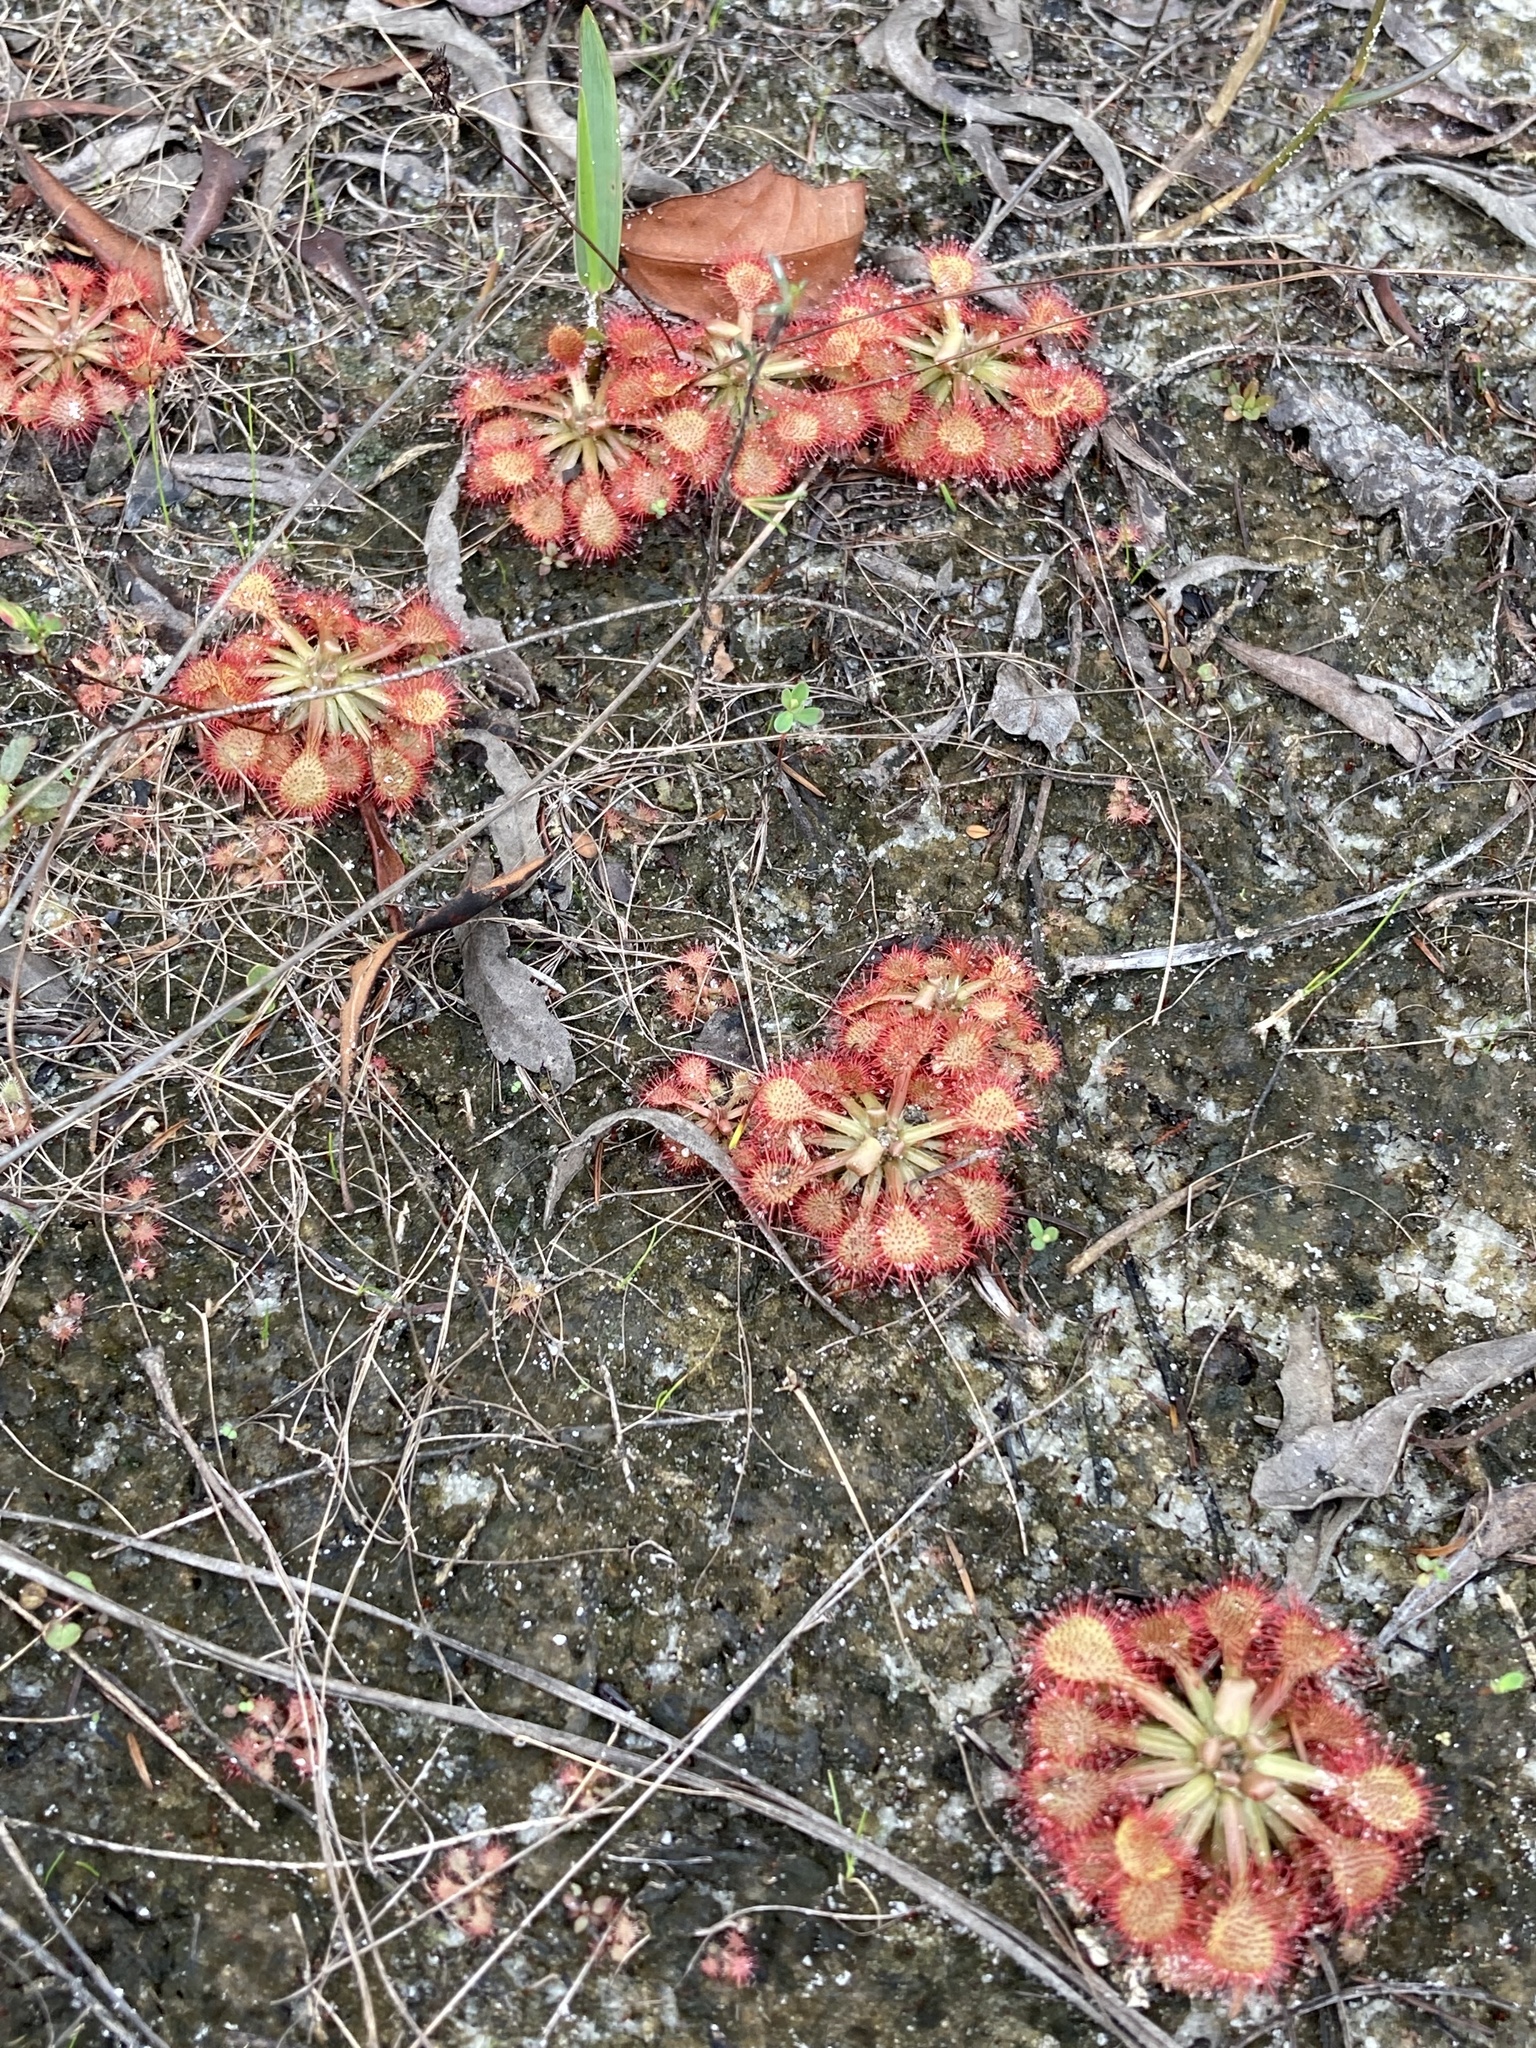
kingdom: Plantae
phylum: Tracheophyta
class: Magnoliopsida
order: Caryophyllales
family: Droseraceae
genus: Drosera
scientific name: Drosera capillaris
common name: Pink sundew
